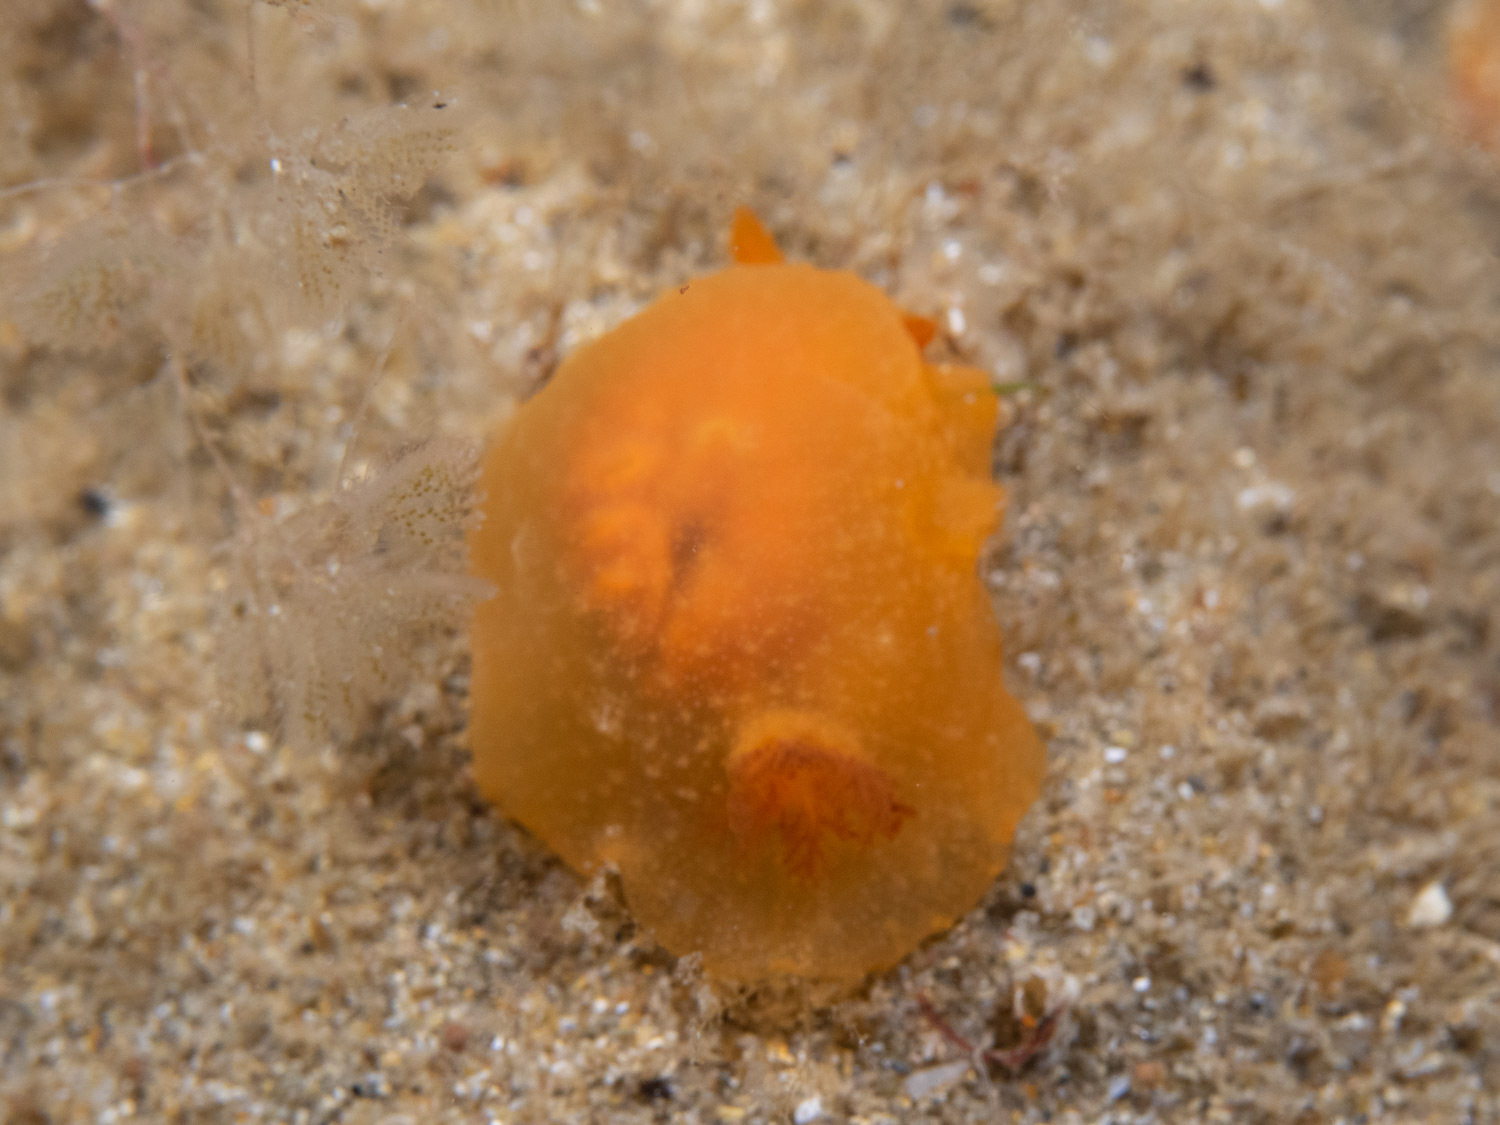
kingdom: Animalia
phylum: Mollusca
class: Gastropoda
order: Nudibranchia
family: Dendrodorididae
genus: Doriopsilla
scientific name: Doriopsilla carneola
